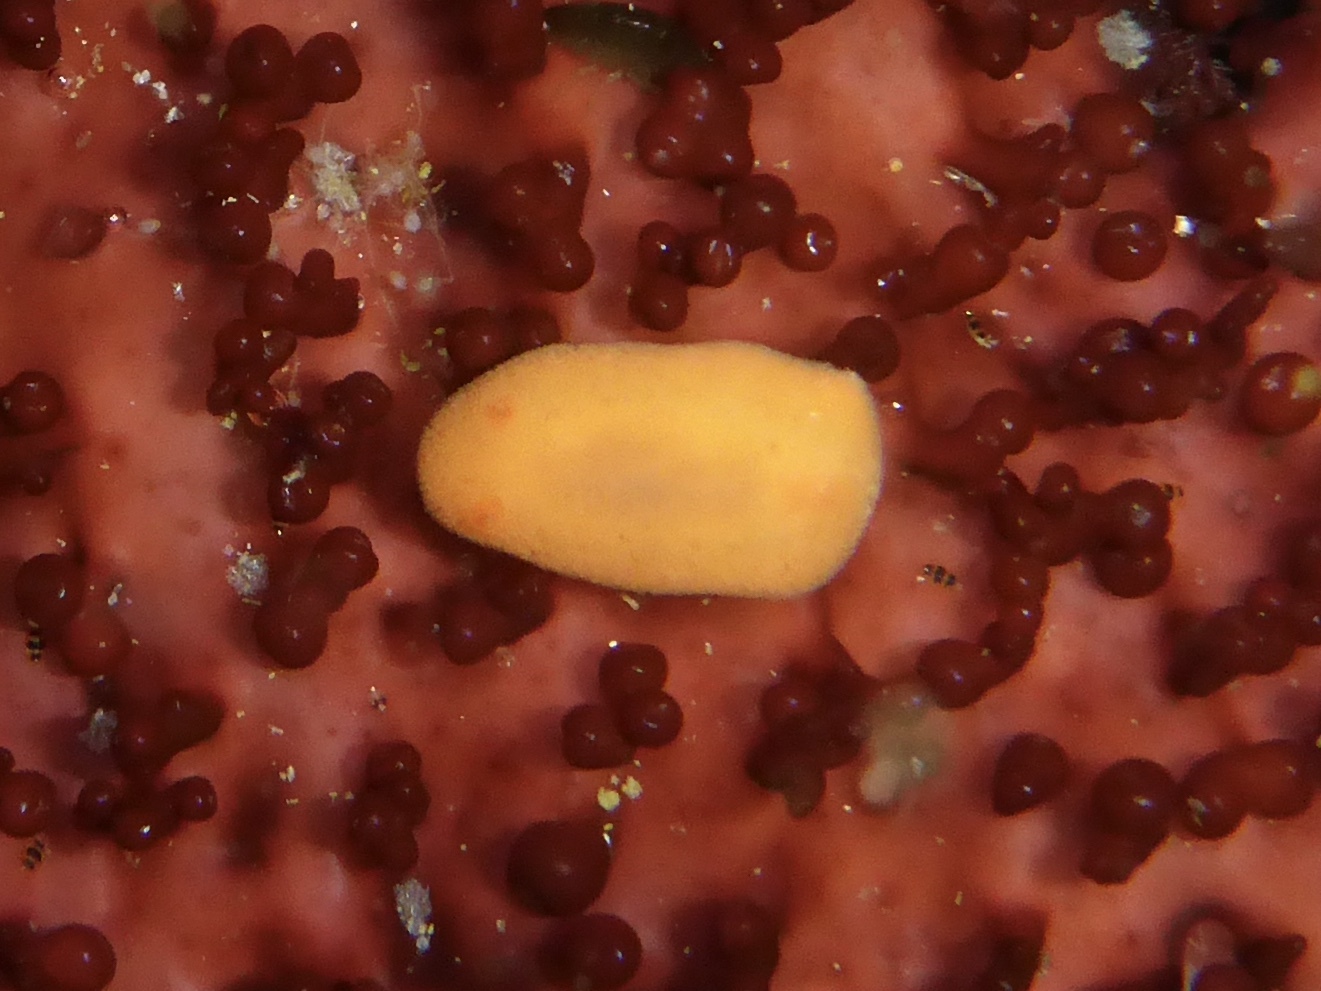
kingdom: Animalia
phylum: Mollusca
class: Gastropoda
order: Nudibranchia
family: Discodorididae
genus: Rostanga
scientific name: Rostanga pulchra
